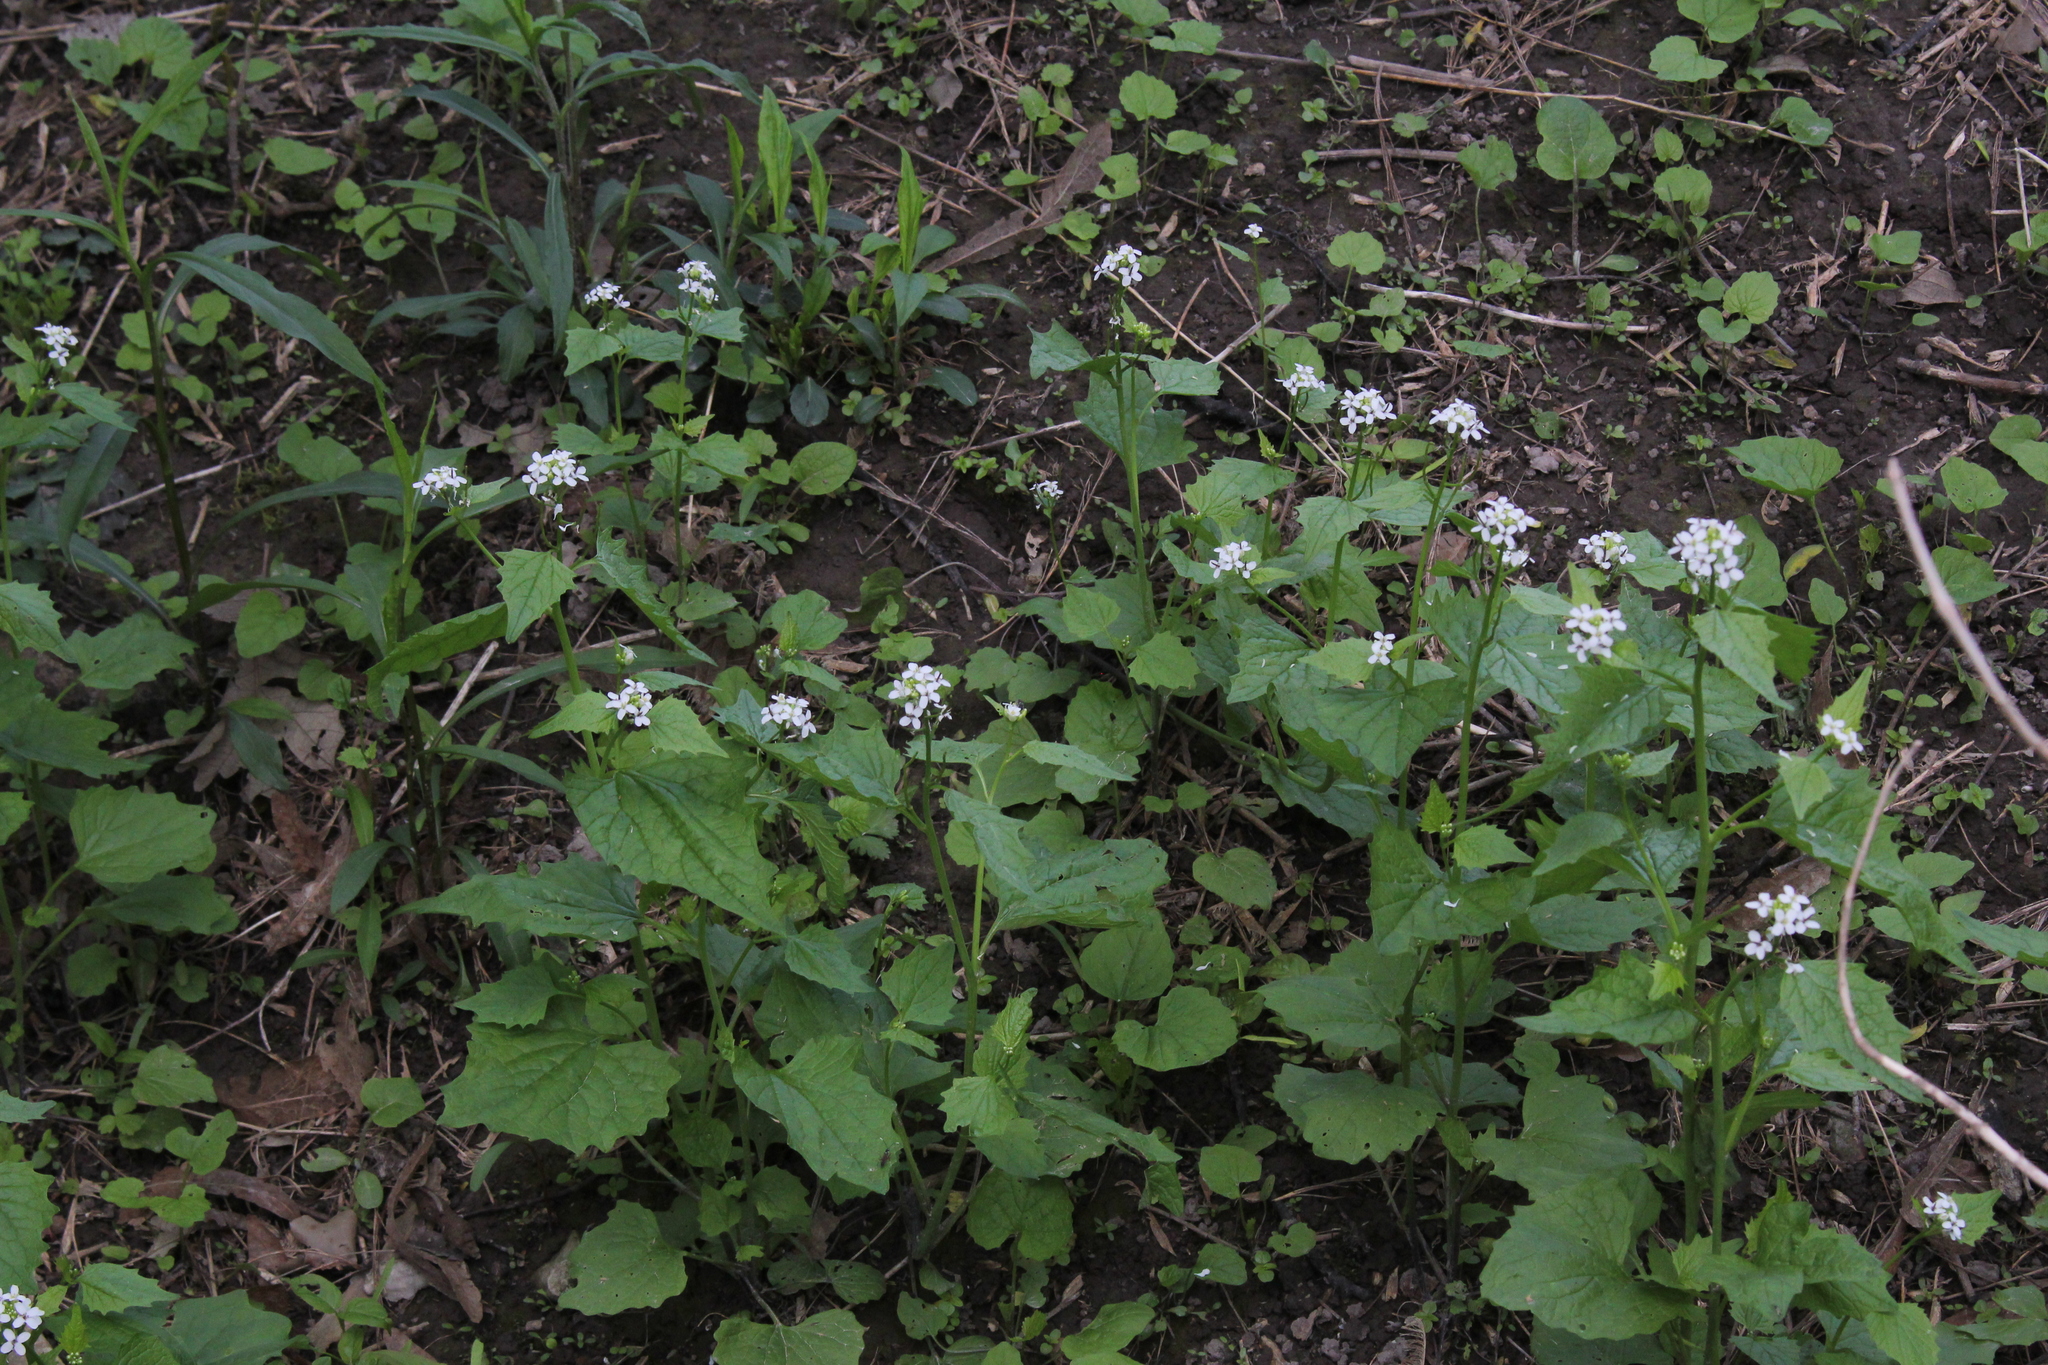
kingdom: Plantae
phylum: Tracheophyta
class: Magnoliopsida
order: Brassicales
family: Brassicaceae
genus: Alliaria
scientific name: Alliaria petiolata
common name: Garlic mustard
